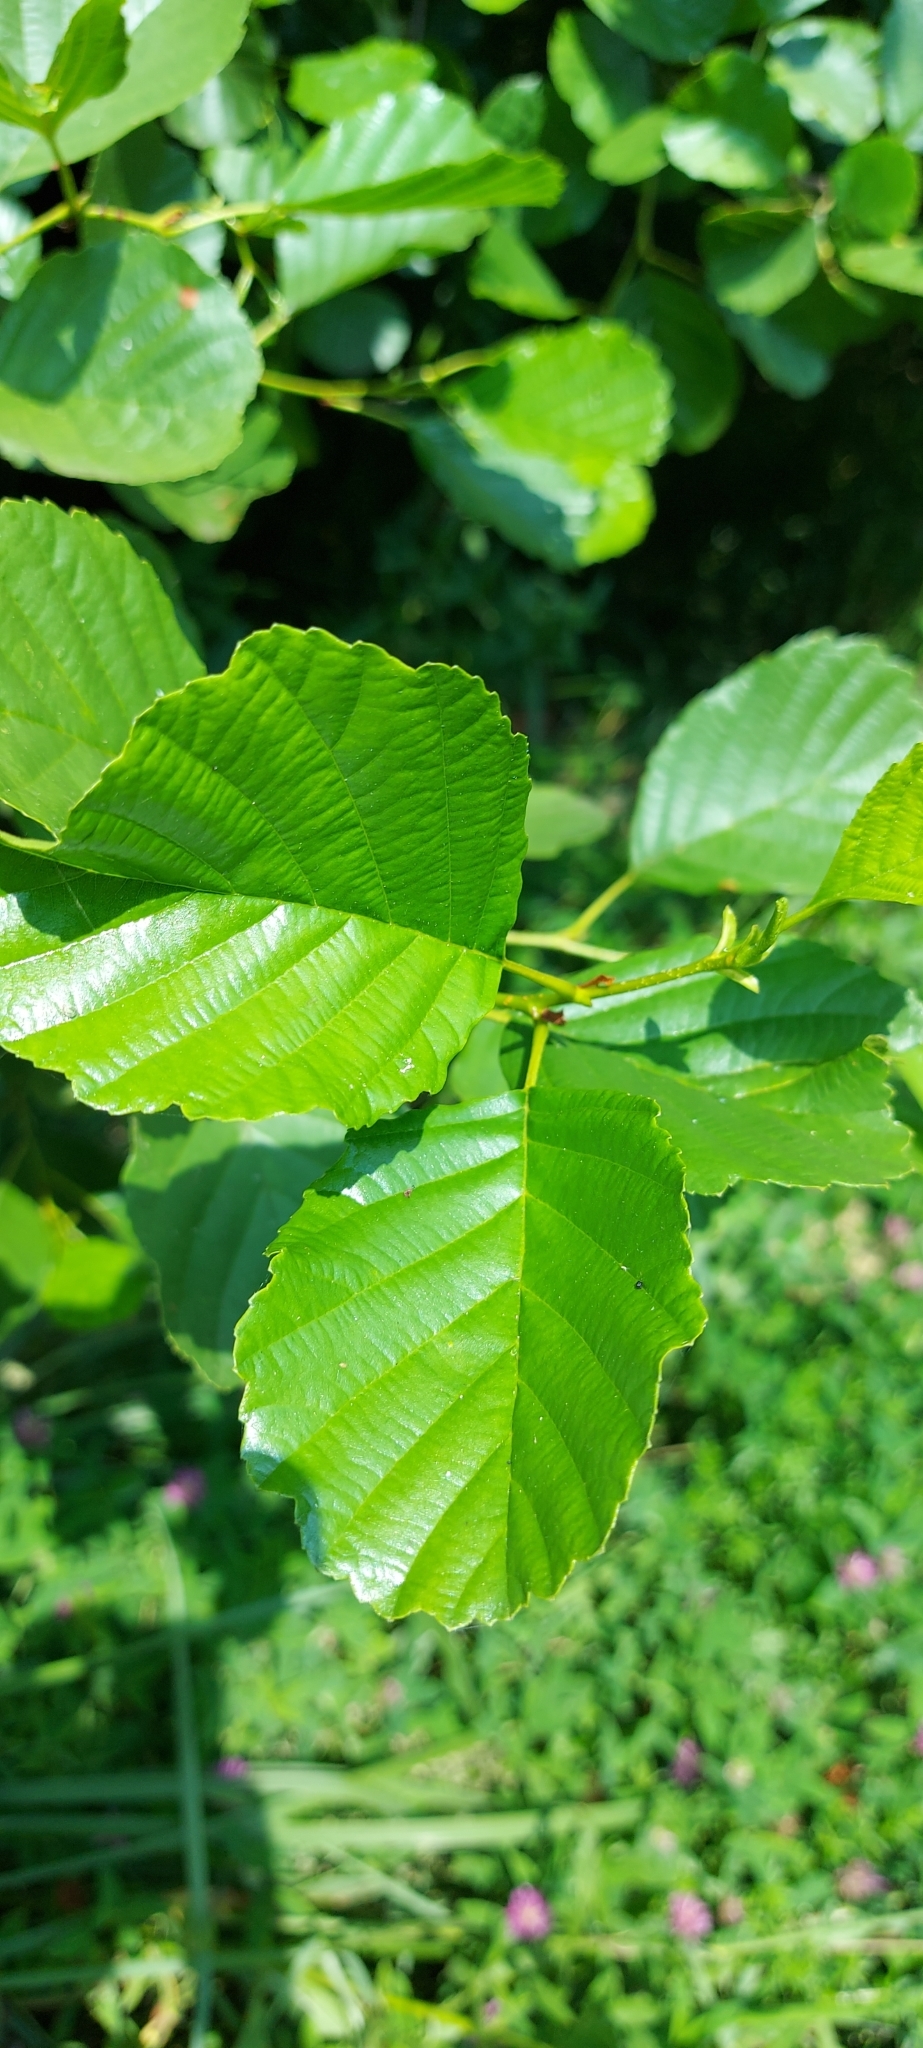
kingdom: Plantae
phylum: Tracheophyta
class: Magnoliopsida
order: Fagales
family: Betulaceae
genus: Alnus
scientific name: Alnus glutinosa
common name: Black alder
